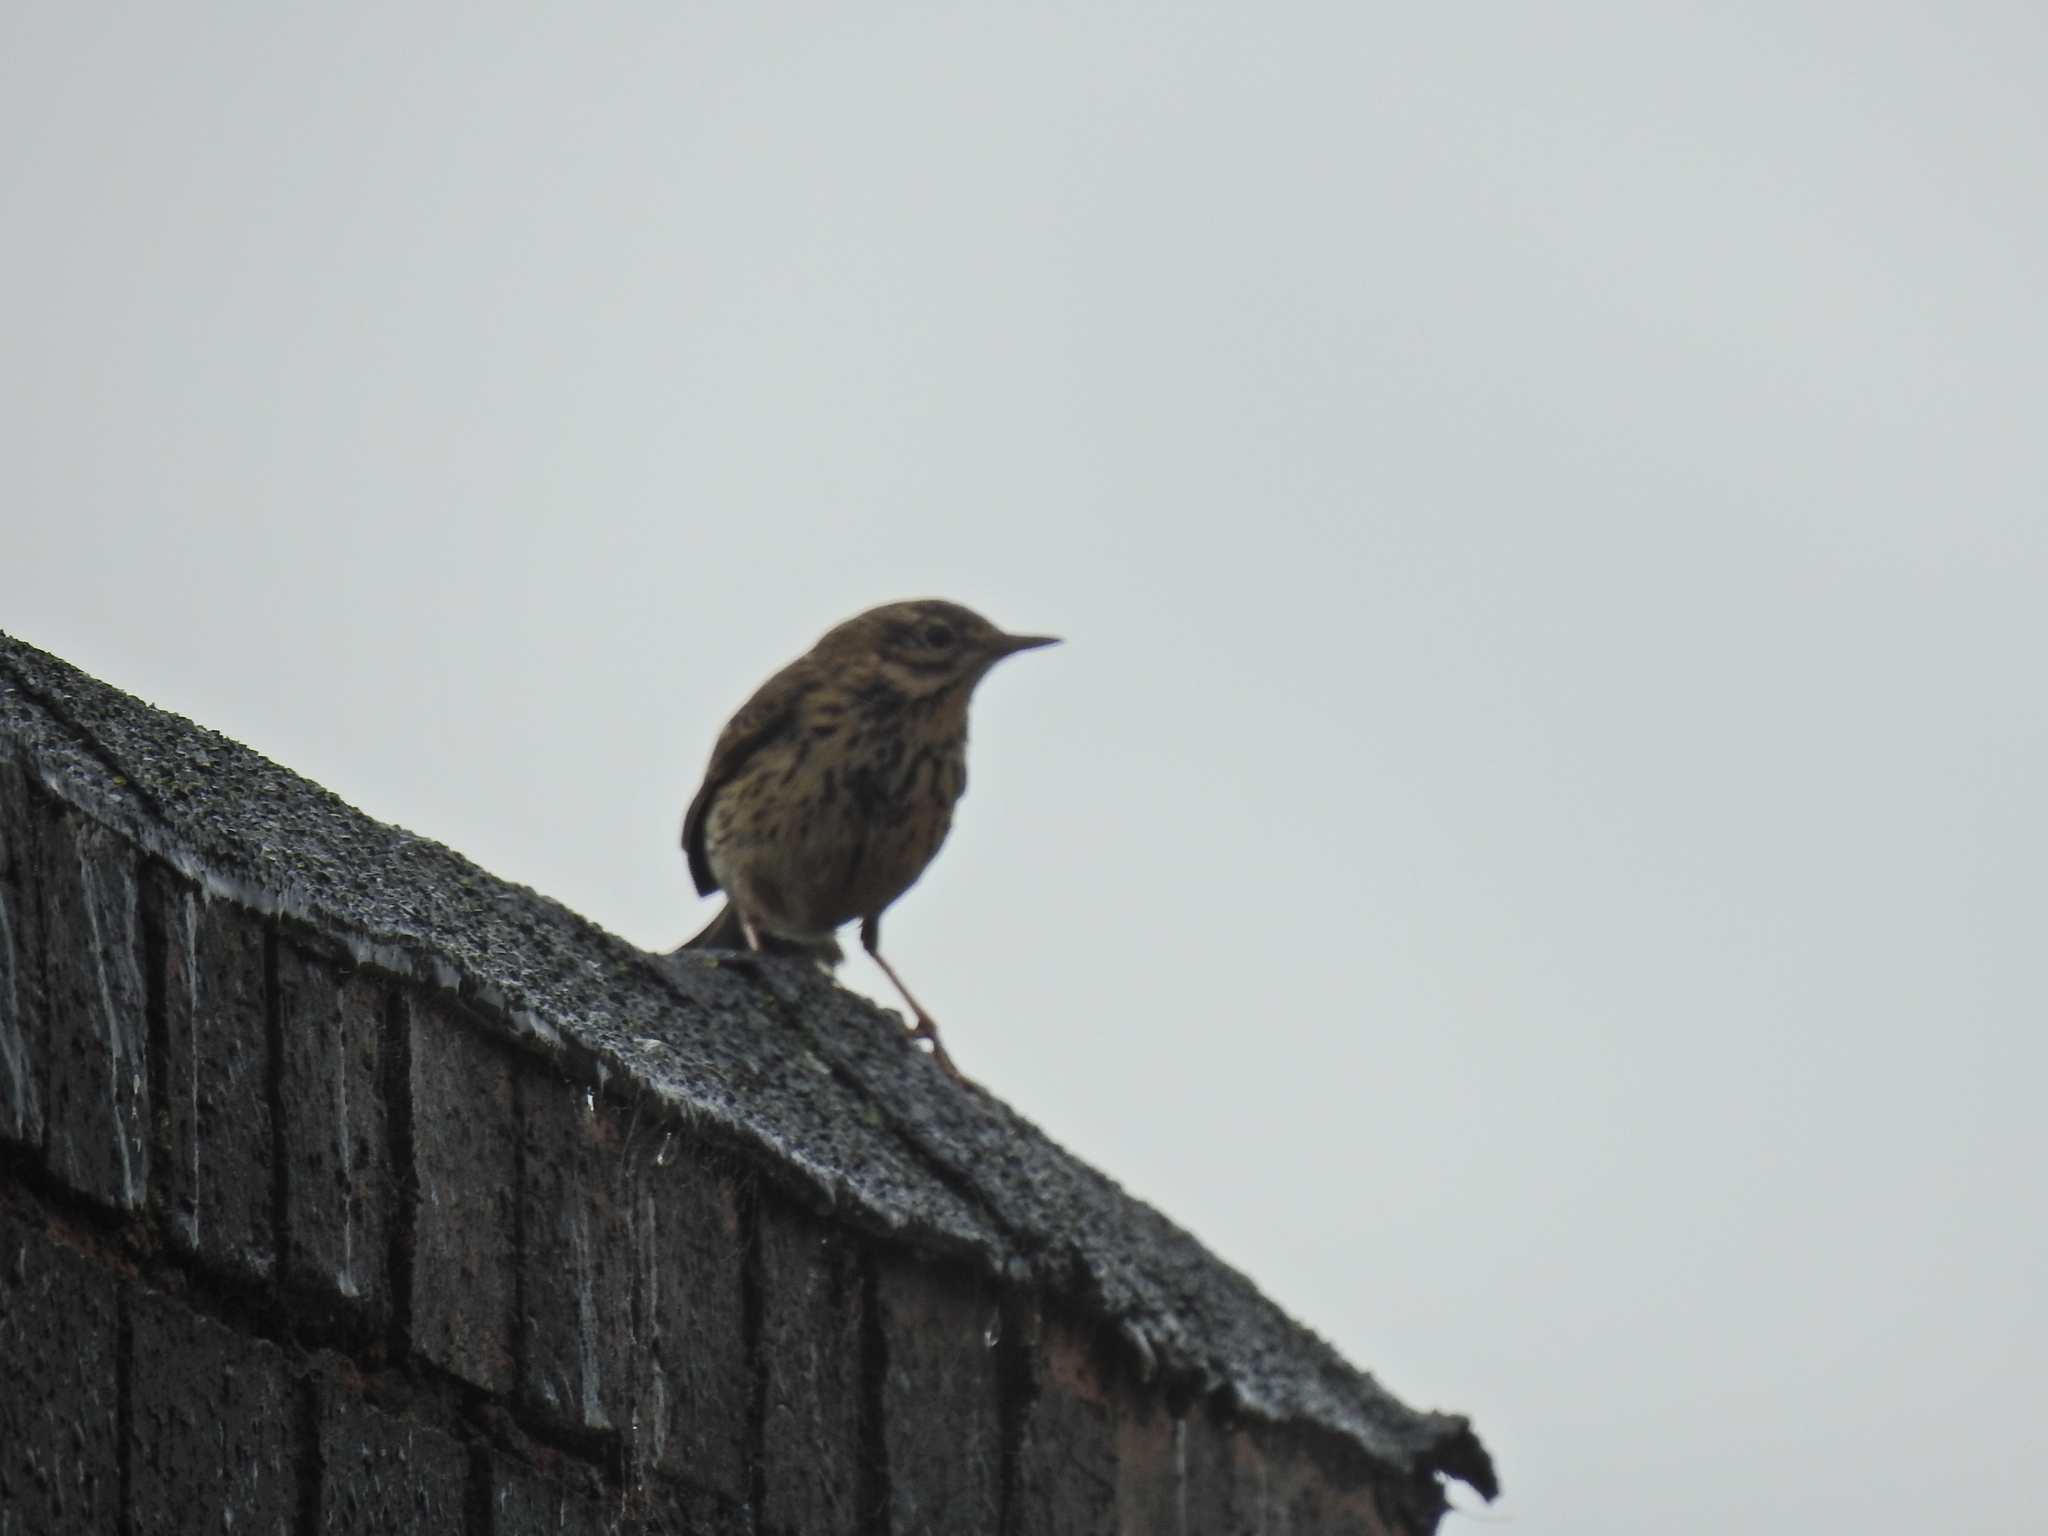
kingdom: Animalia
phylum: Chordata
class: Aves
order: Passeriformes
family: Motacillidae
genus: Anthus
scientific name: Anthus pratensis
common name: Meadow pipit
